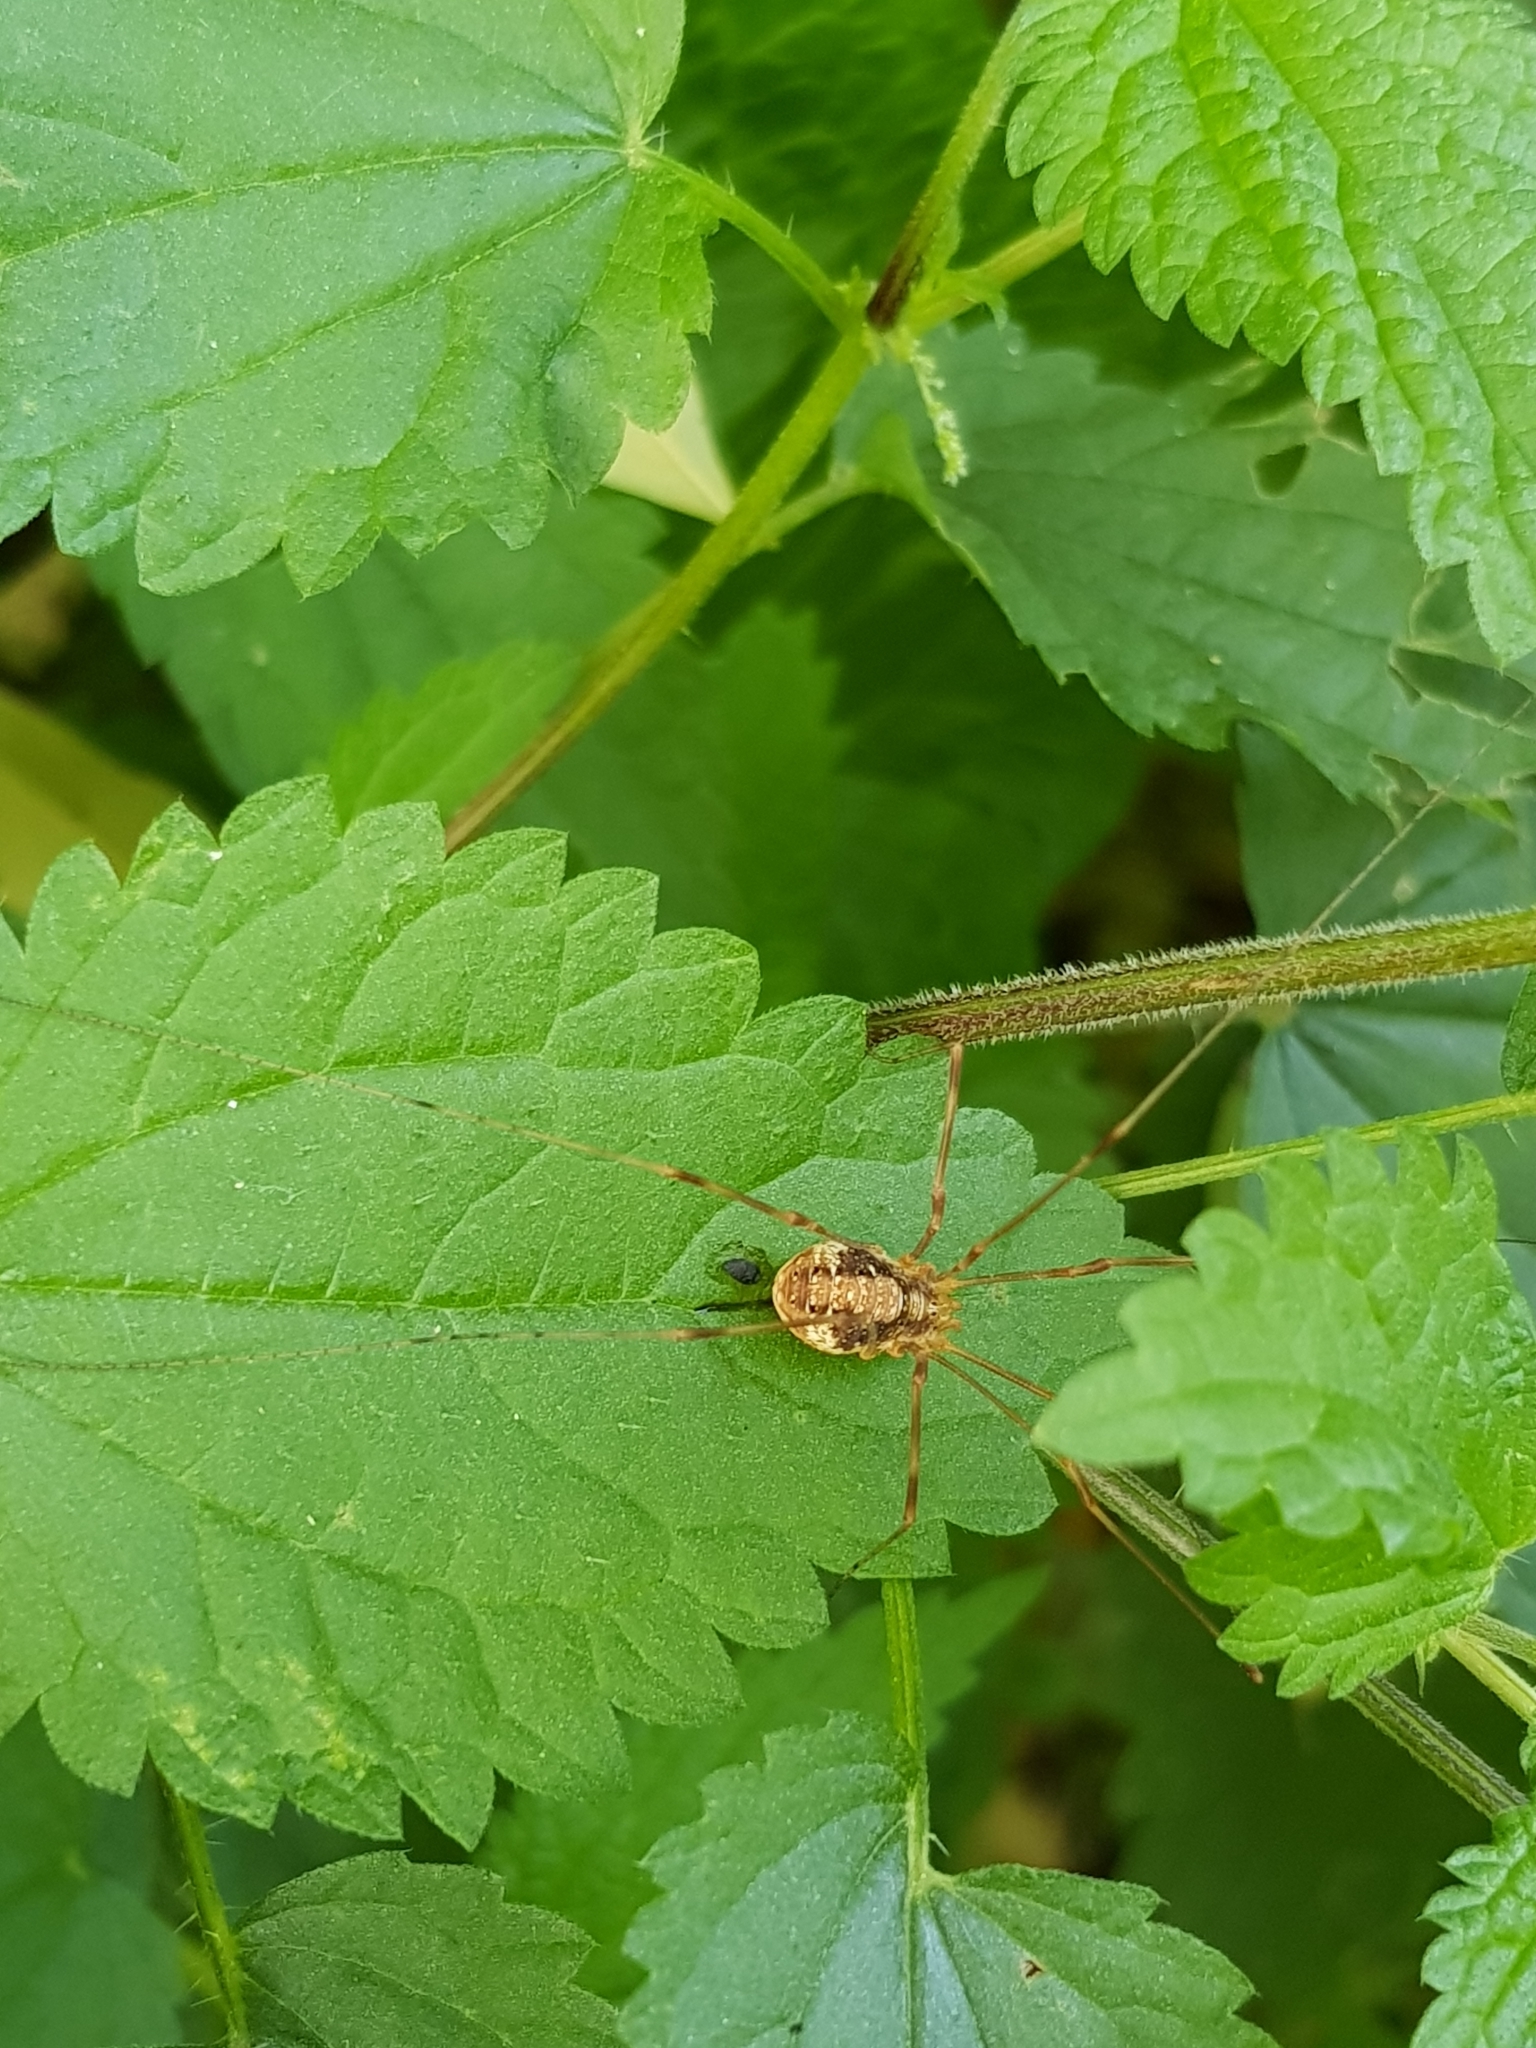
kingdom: Animalia
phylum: Arthropoda
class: Arachnida
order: Opiliones
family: Phalangiidae
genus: Opilio
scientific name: Opilio ruzickai
